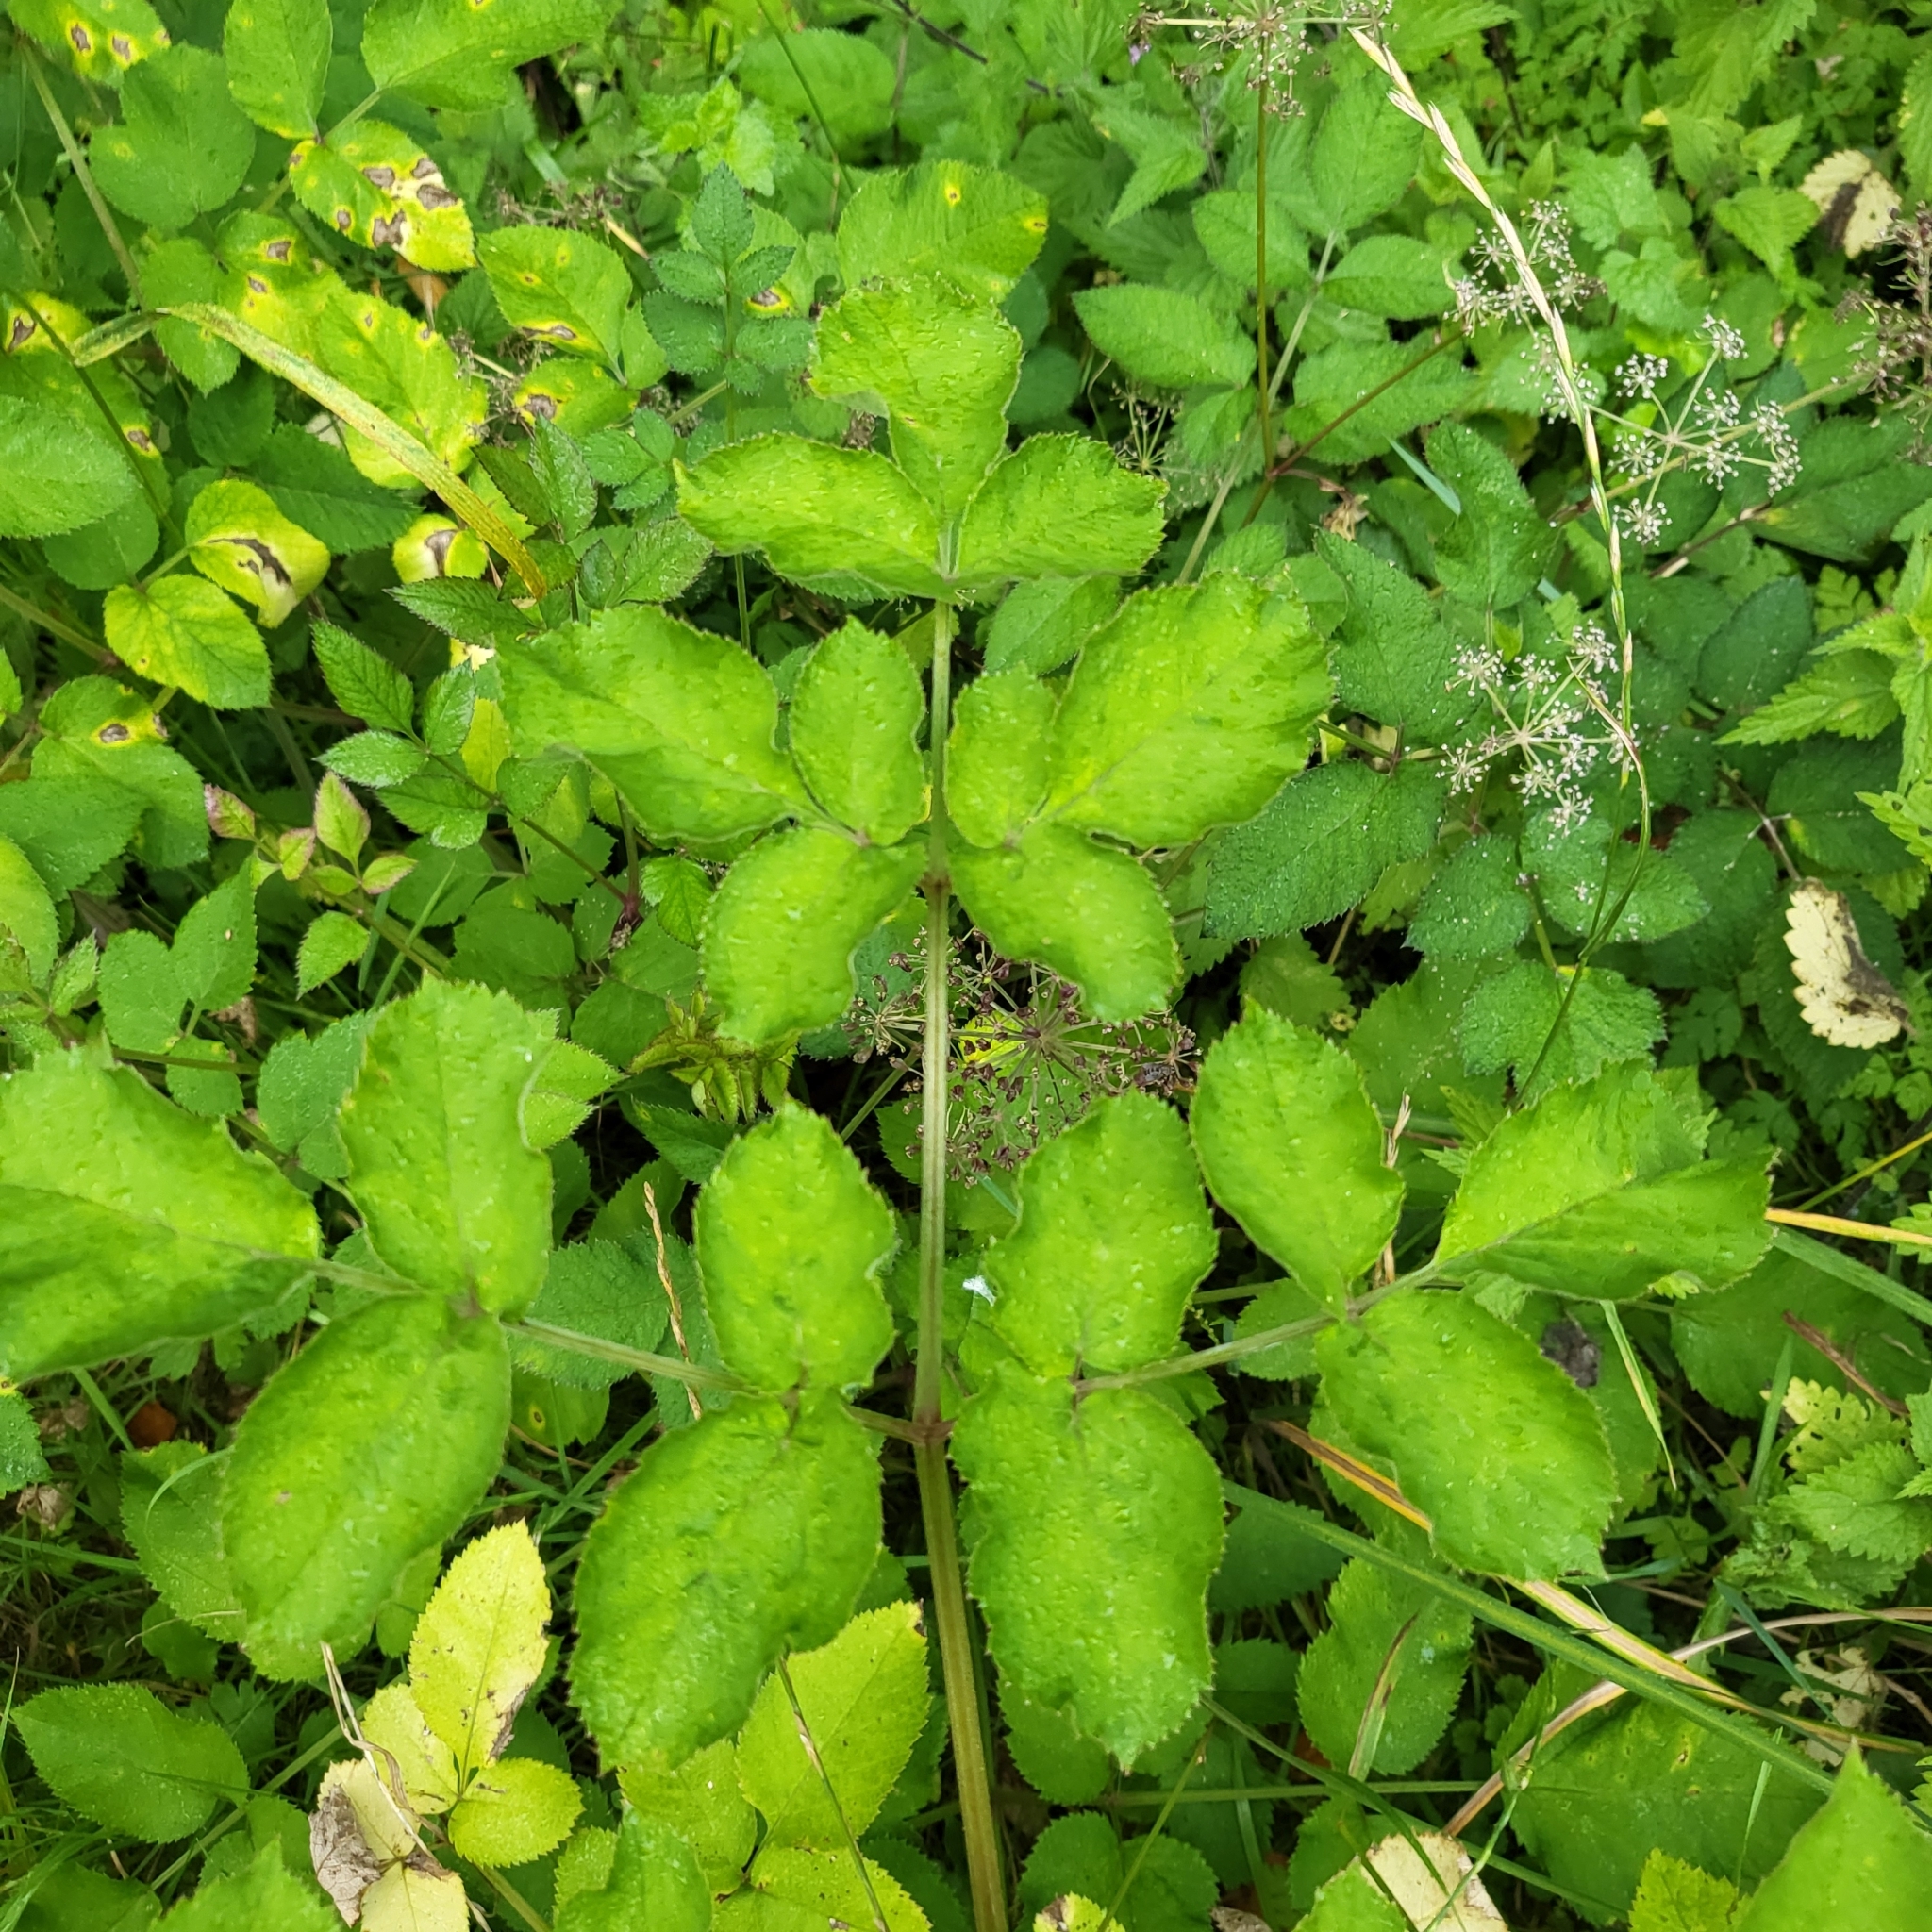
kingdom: Plantae
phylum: Tracheophyta
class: Magnoliopsida
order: Apiales
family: Apiaceae
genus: Angelica
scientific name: Angelica sylvestris
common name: Wild angelica
